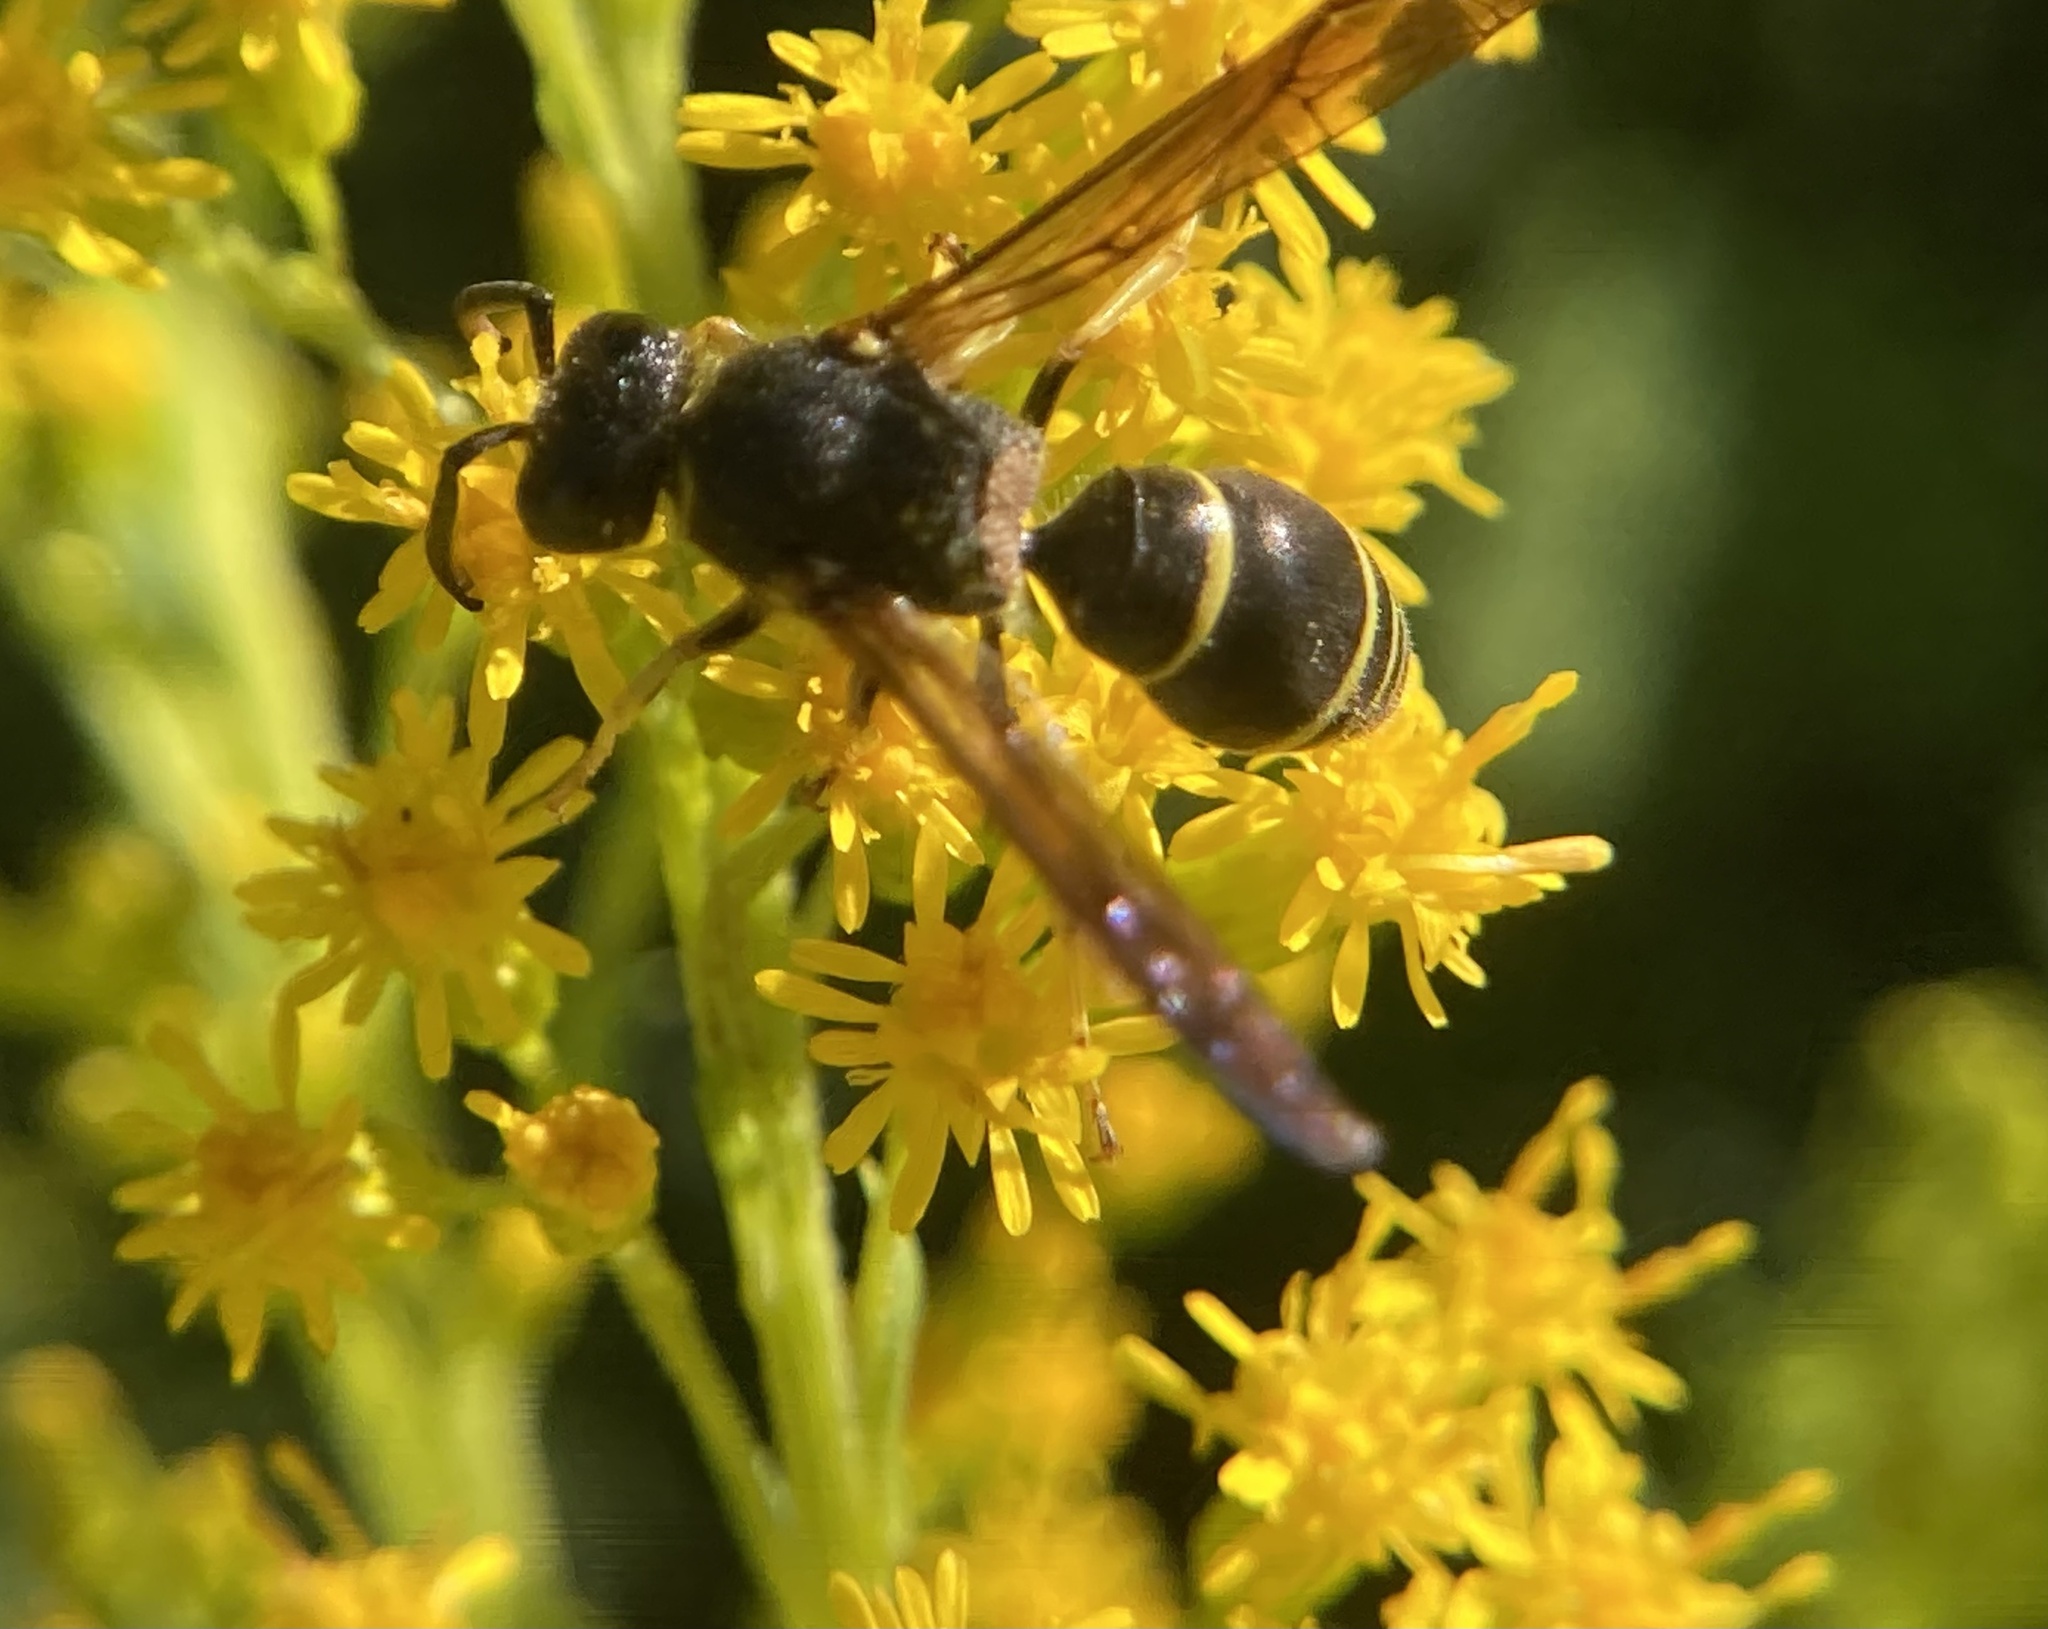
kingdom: Animalia
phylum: Arthropoda
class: Insecta
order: Hymenoptera
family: Vespidae
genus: Ancistrocerus
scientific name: Ancistrocerus
